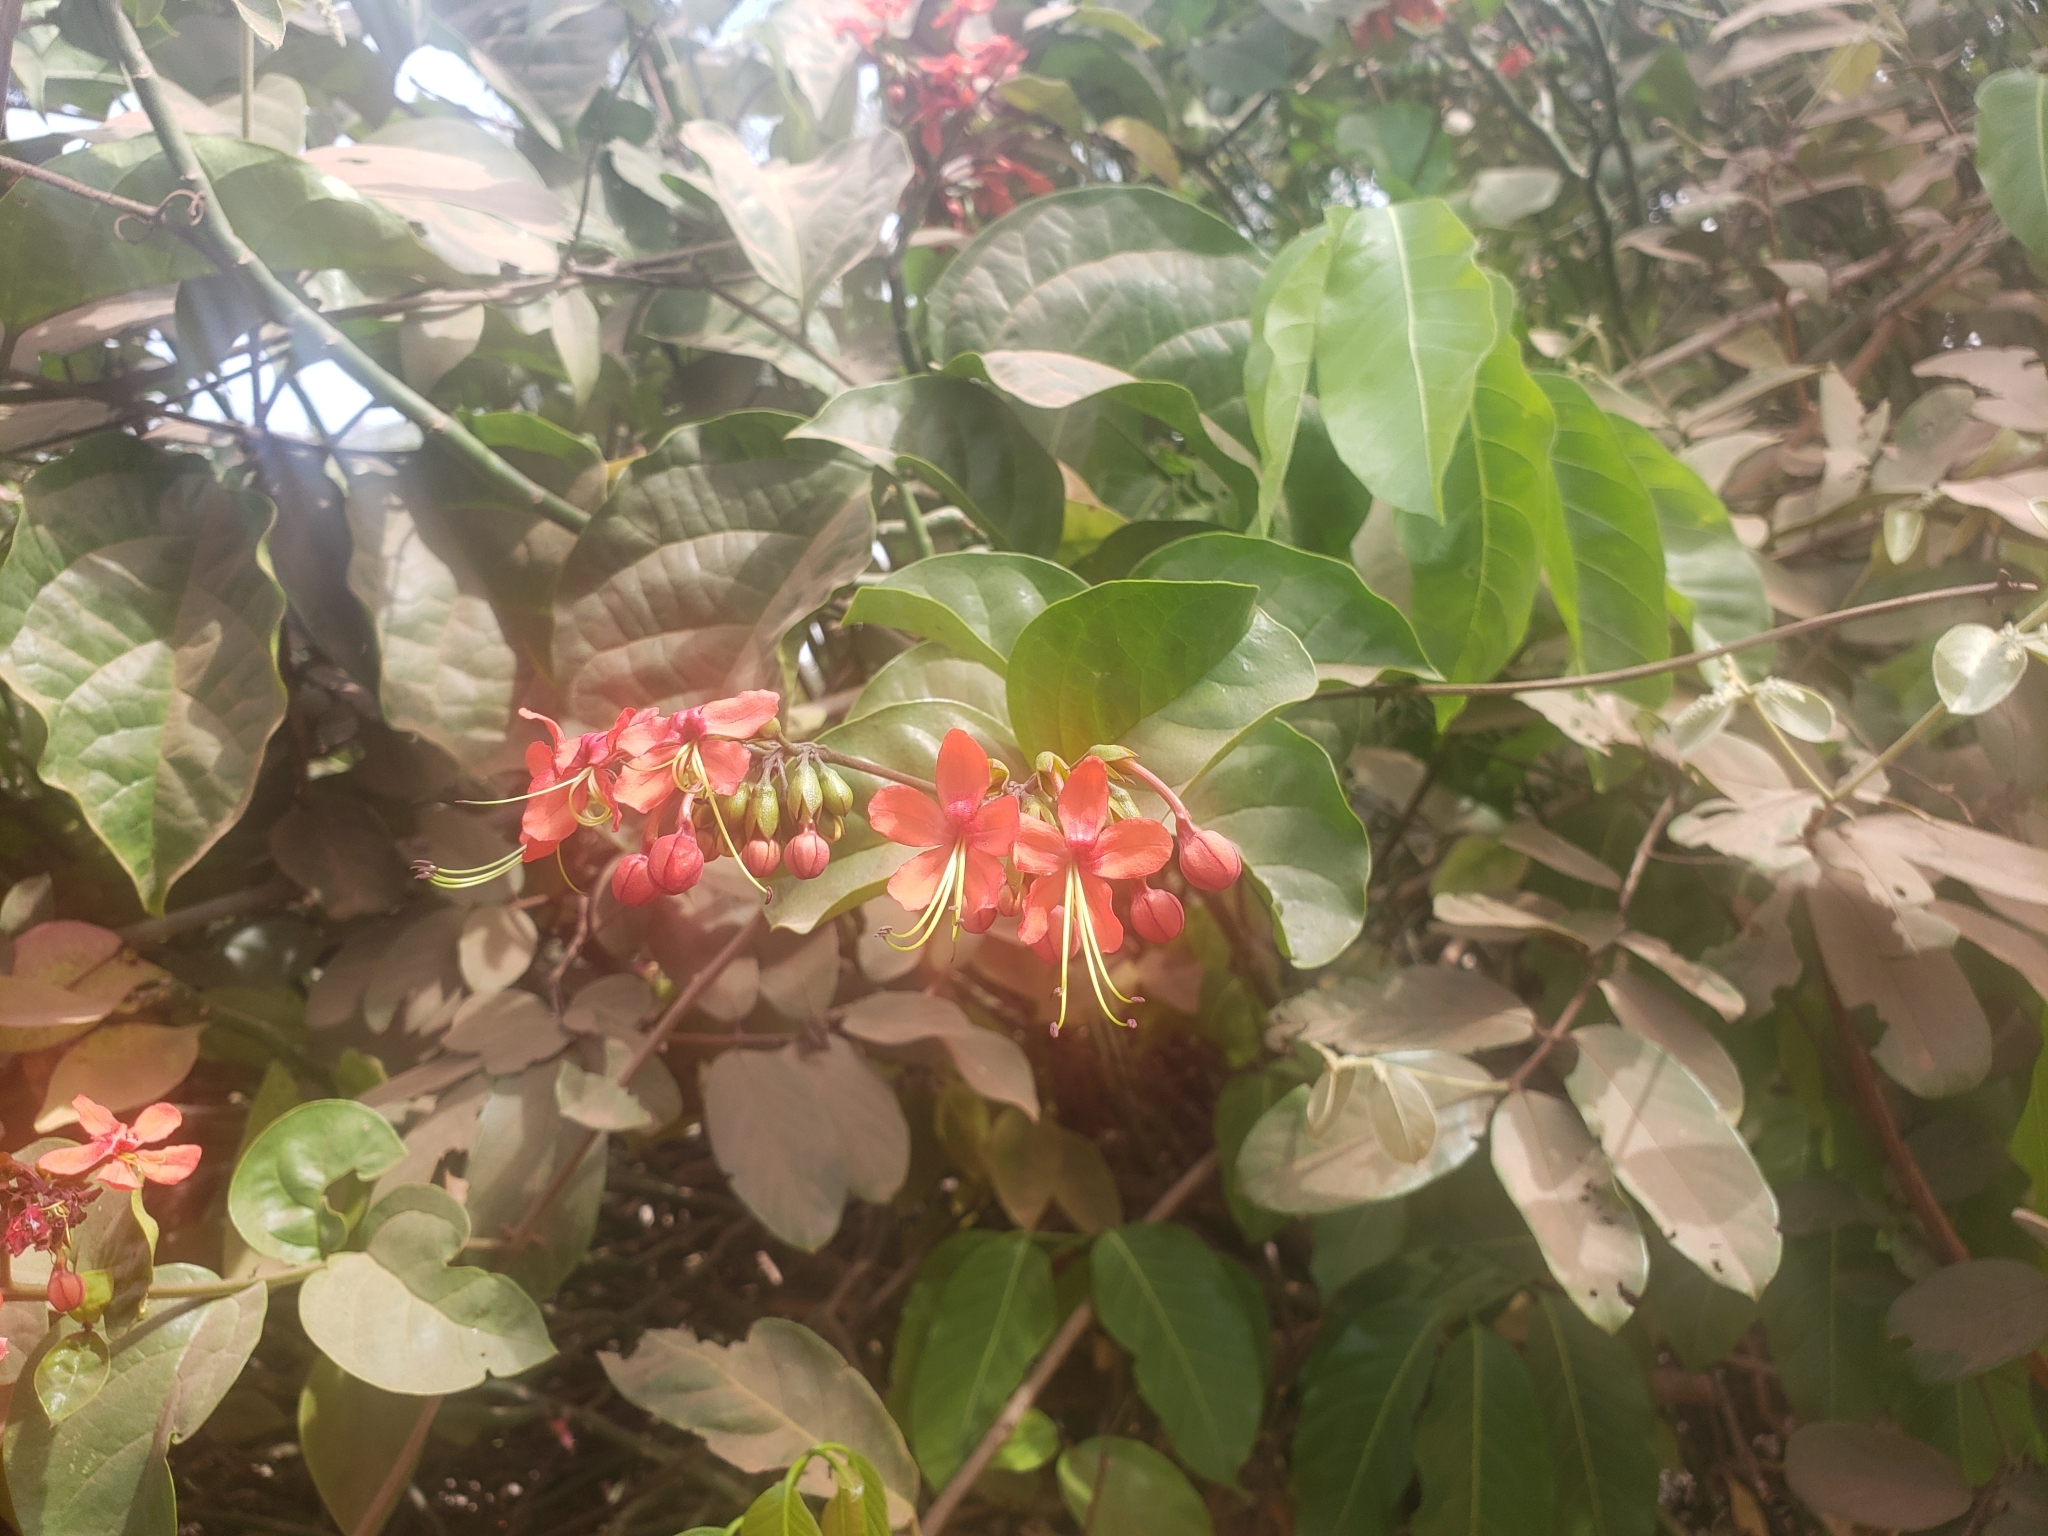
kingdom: Plantae
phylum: Tracheophyta
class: Magnoliopsida
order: Lamiales
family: Lamiaceae
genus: Clerodendrum
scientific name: Clerodendrum splendens
